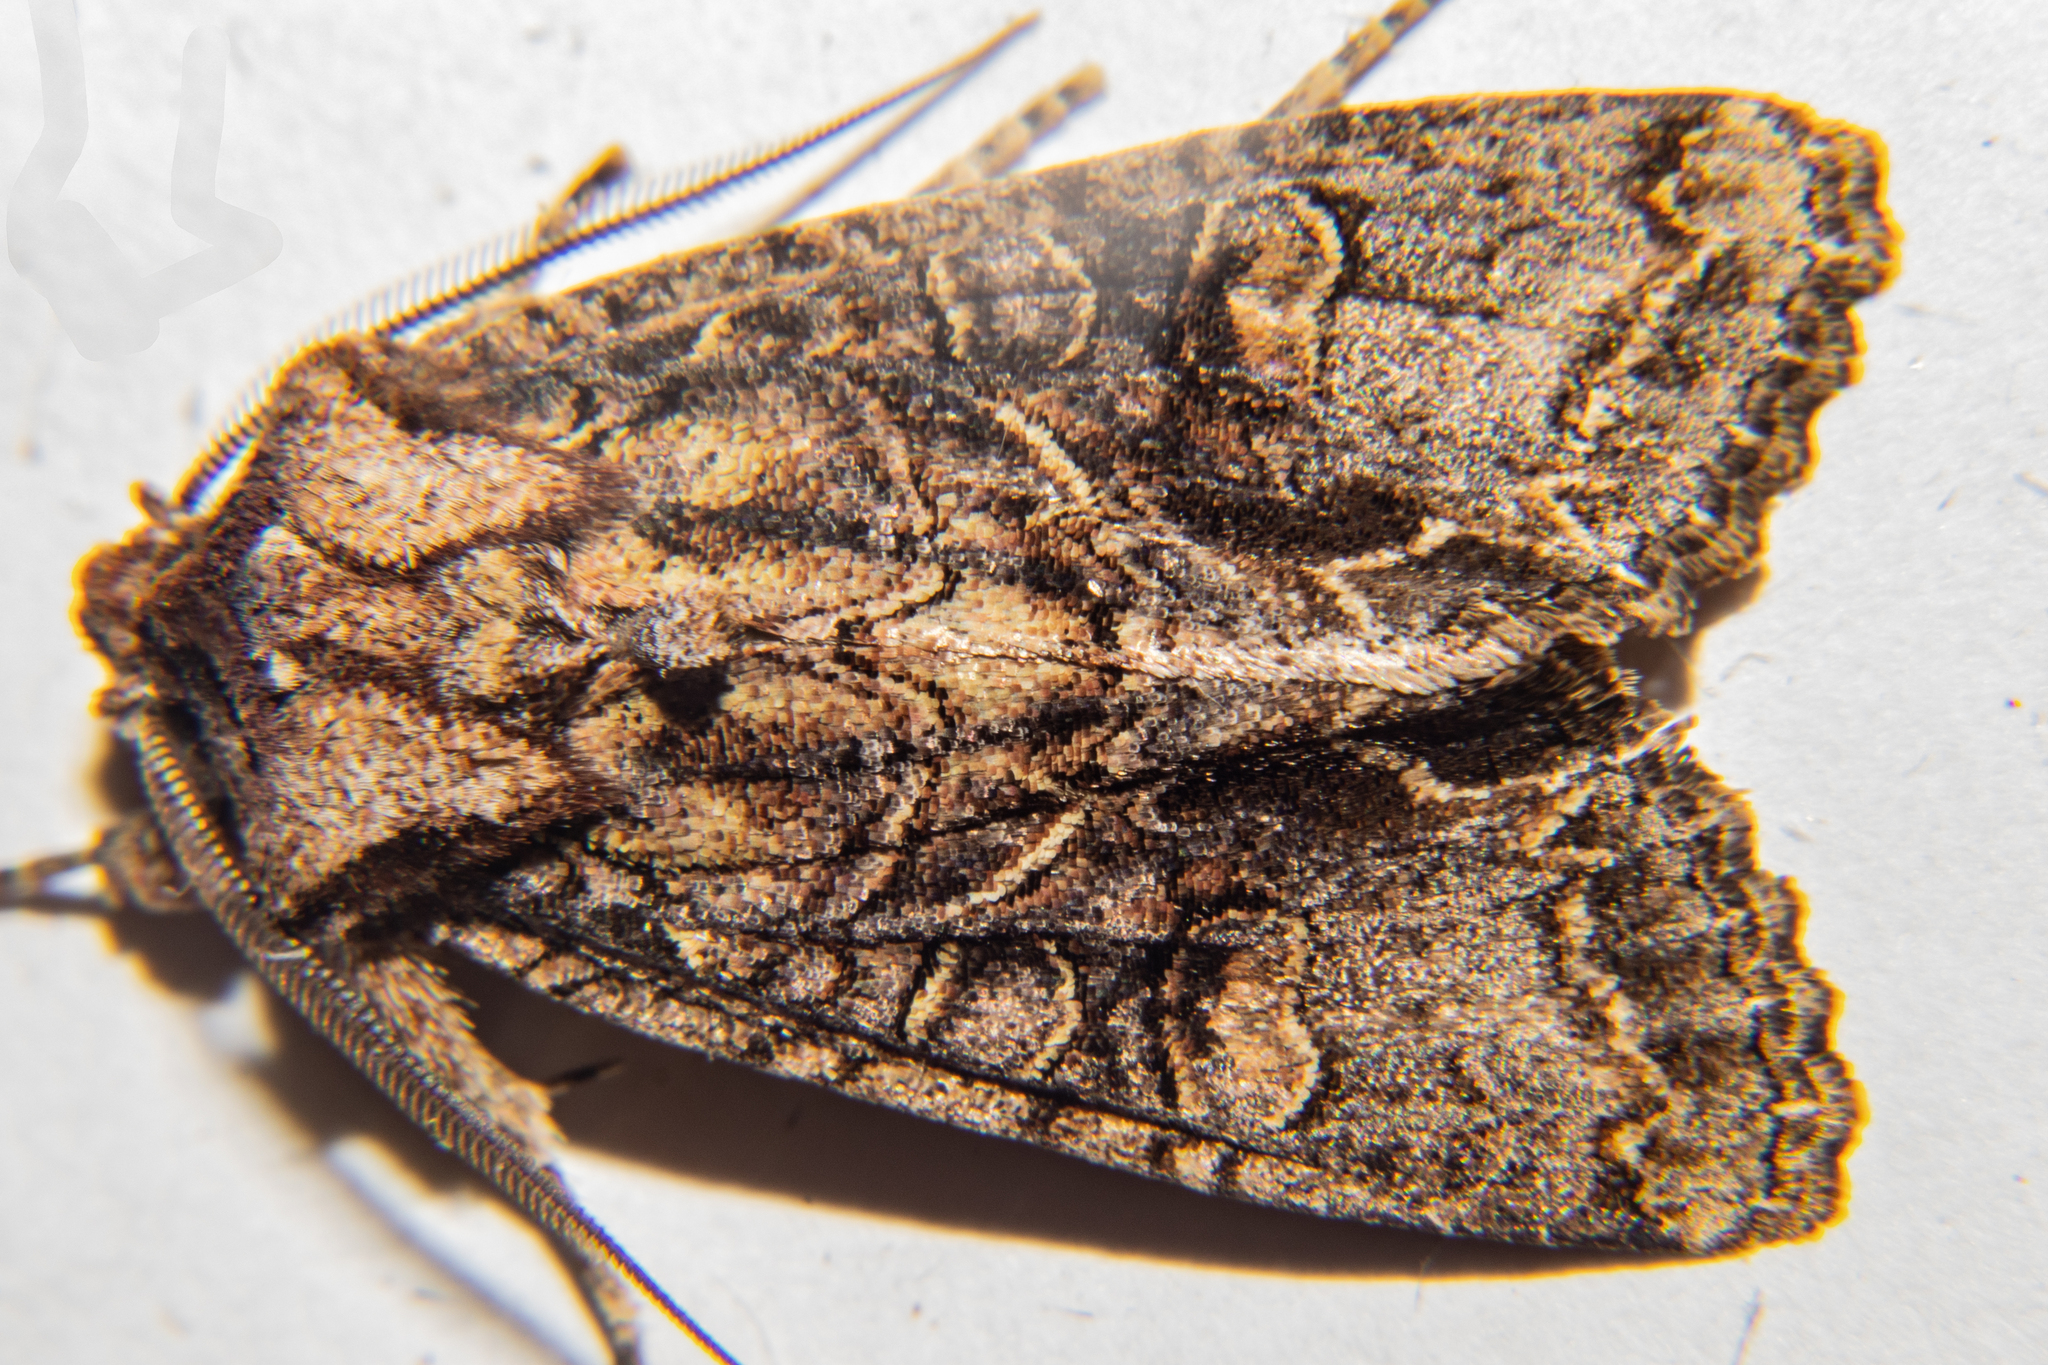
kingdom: Animalia
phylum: Arthropoda
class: Insecta
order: Lepidoptera
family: Noctuidae
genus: Ichneutica
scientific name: Ichneutica insignis
